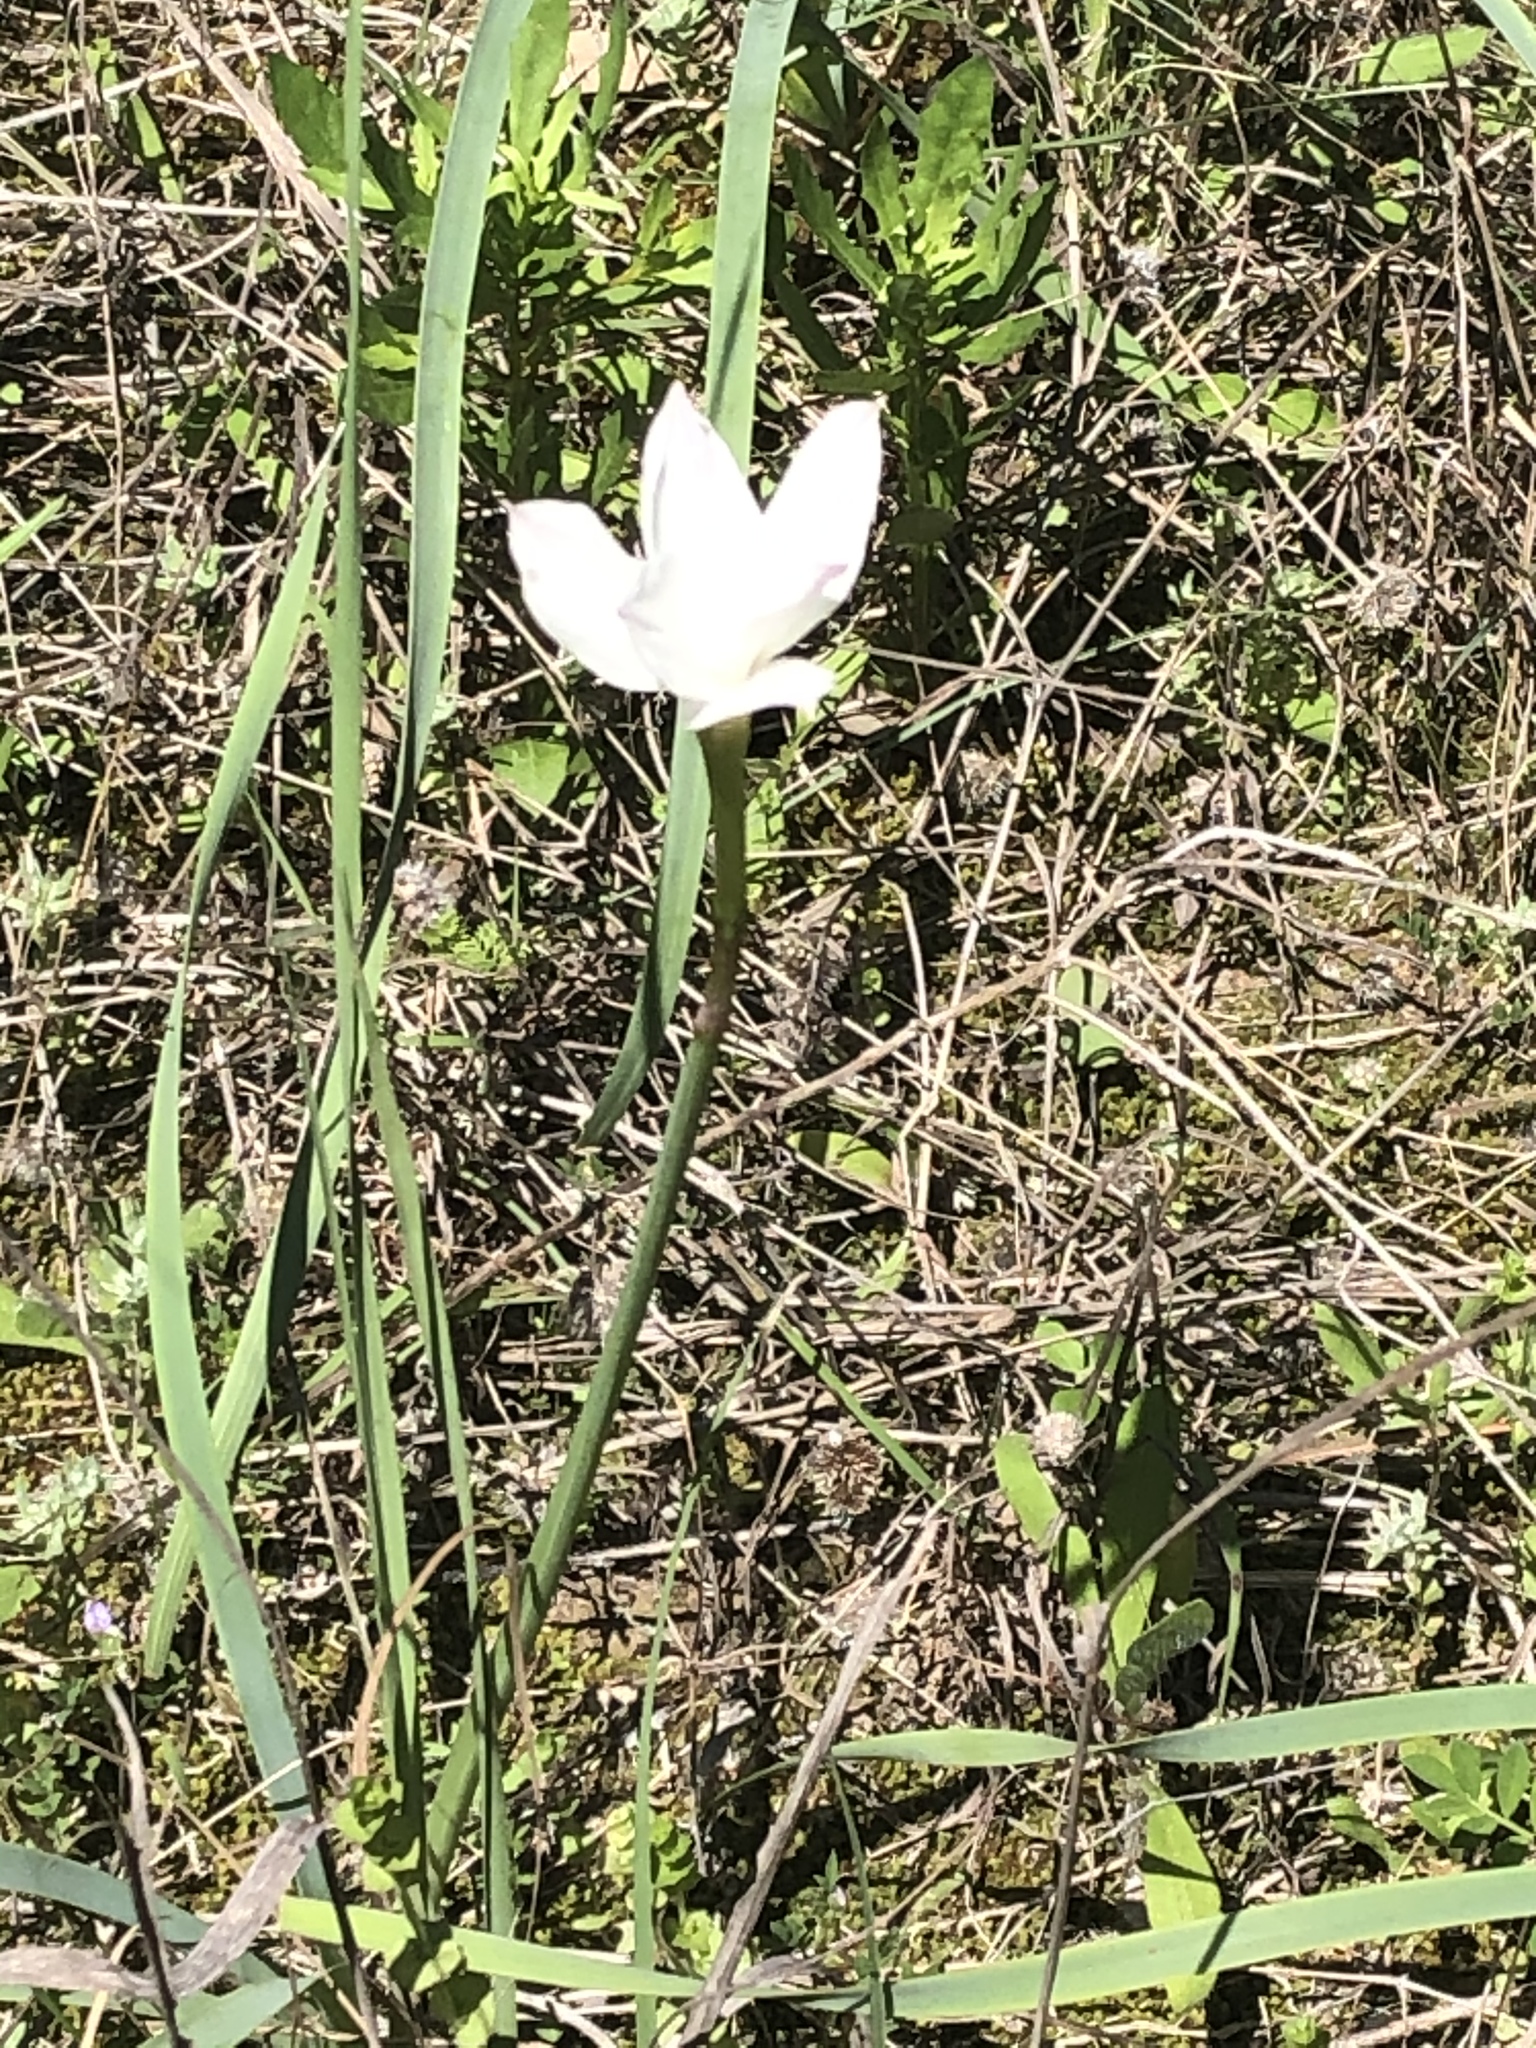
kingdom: Plantae
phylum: Tracheophyta
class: Liliopsida
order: Asparagales
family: Amaryllidaceae
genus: Zephyranthes
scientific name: Zephyranthes drummondii
